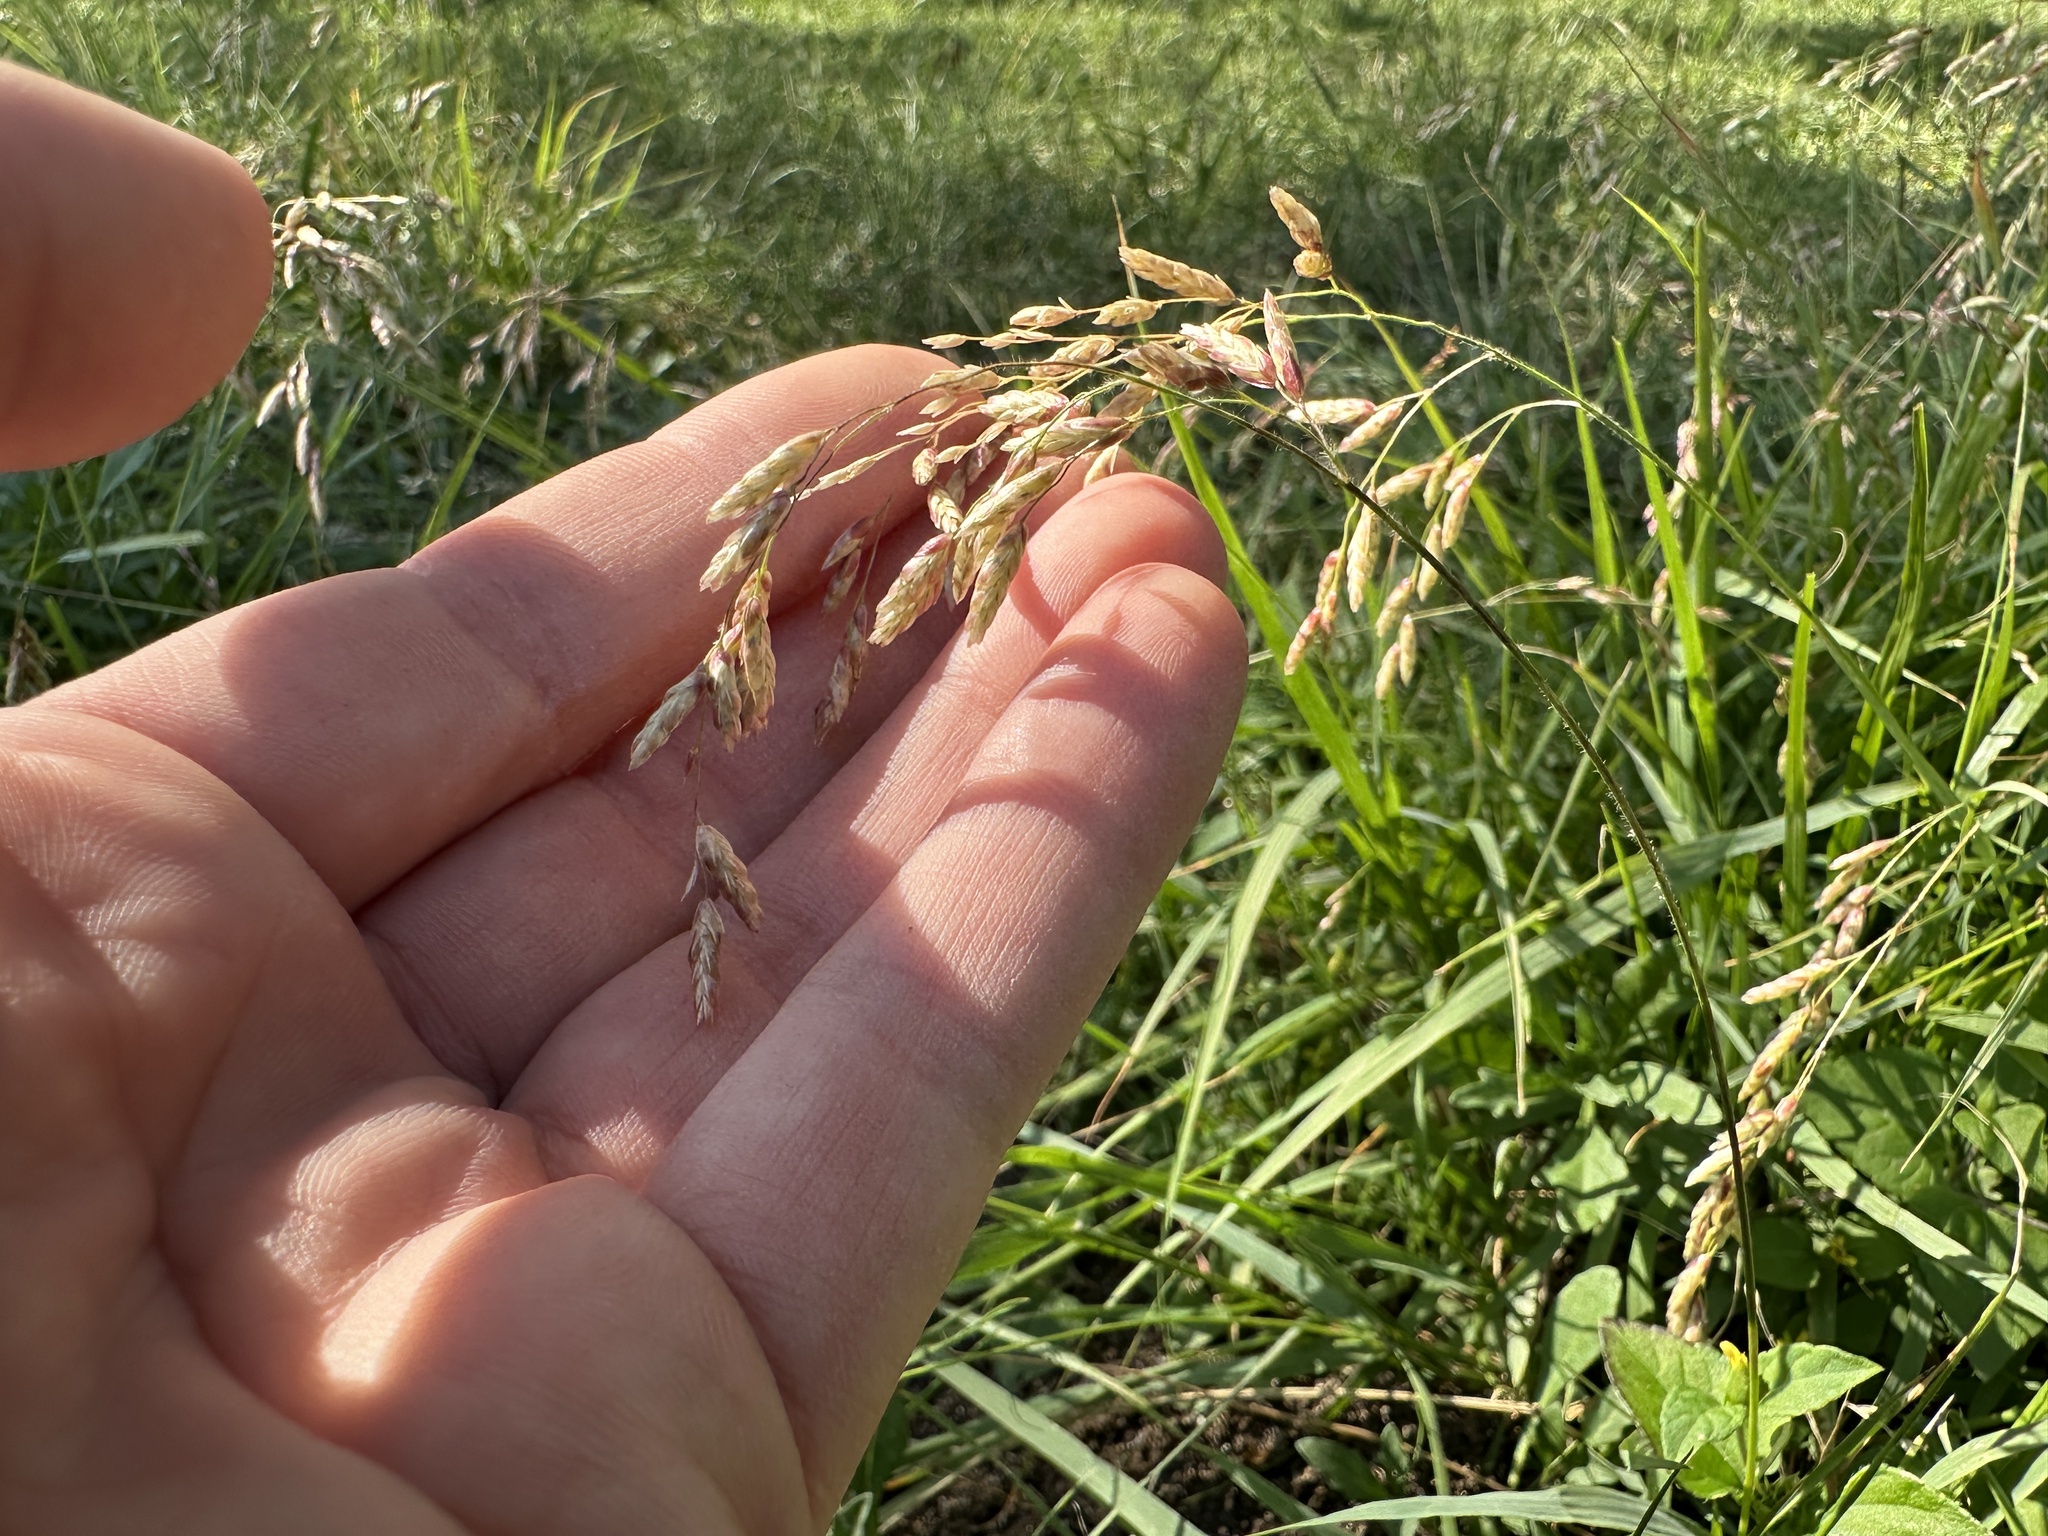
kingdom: Plantae
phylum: Tracheophyta
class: Liliopsida
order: Poales
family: Poaceae
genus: Tridens
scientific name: Tridens texanus
